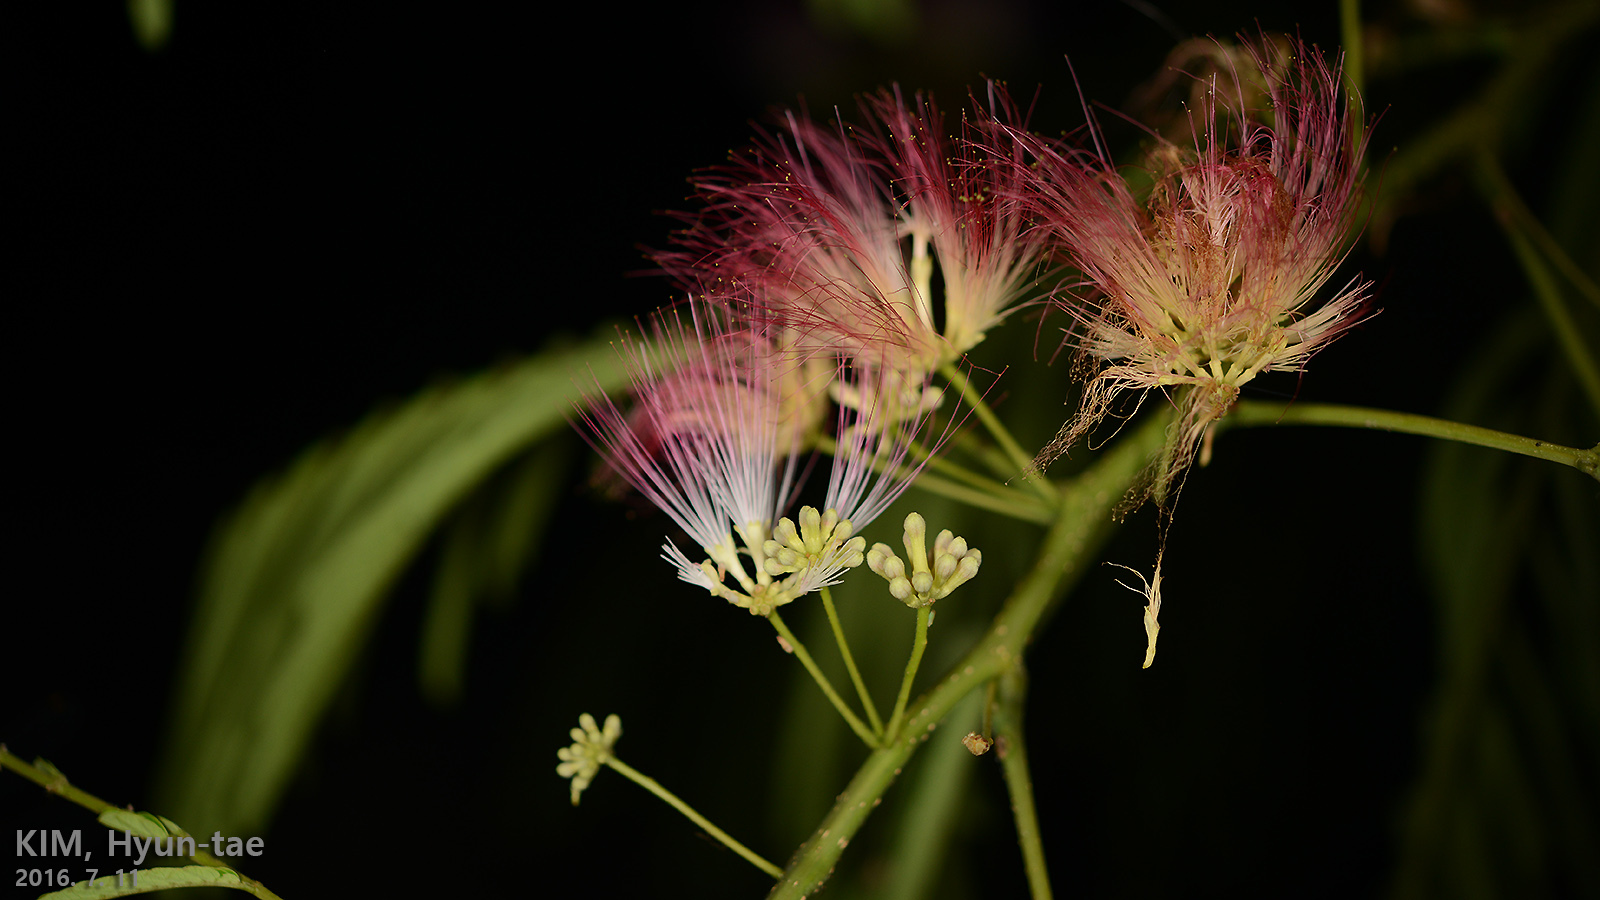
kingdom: Plantae
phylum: Tracheophyta
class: Magnoliopsida
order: Fabales
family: Fabaceae
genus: Albizia
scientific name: Albizia julibrissin
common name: Silktree
